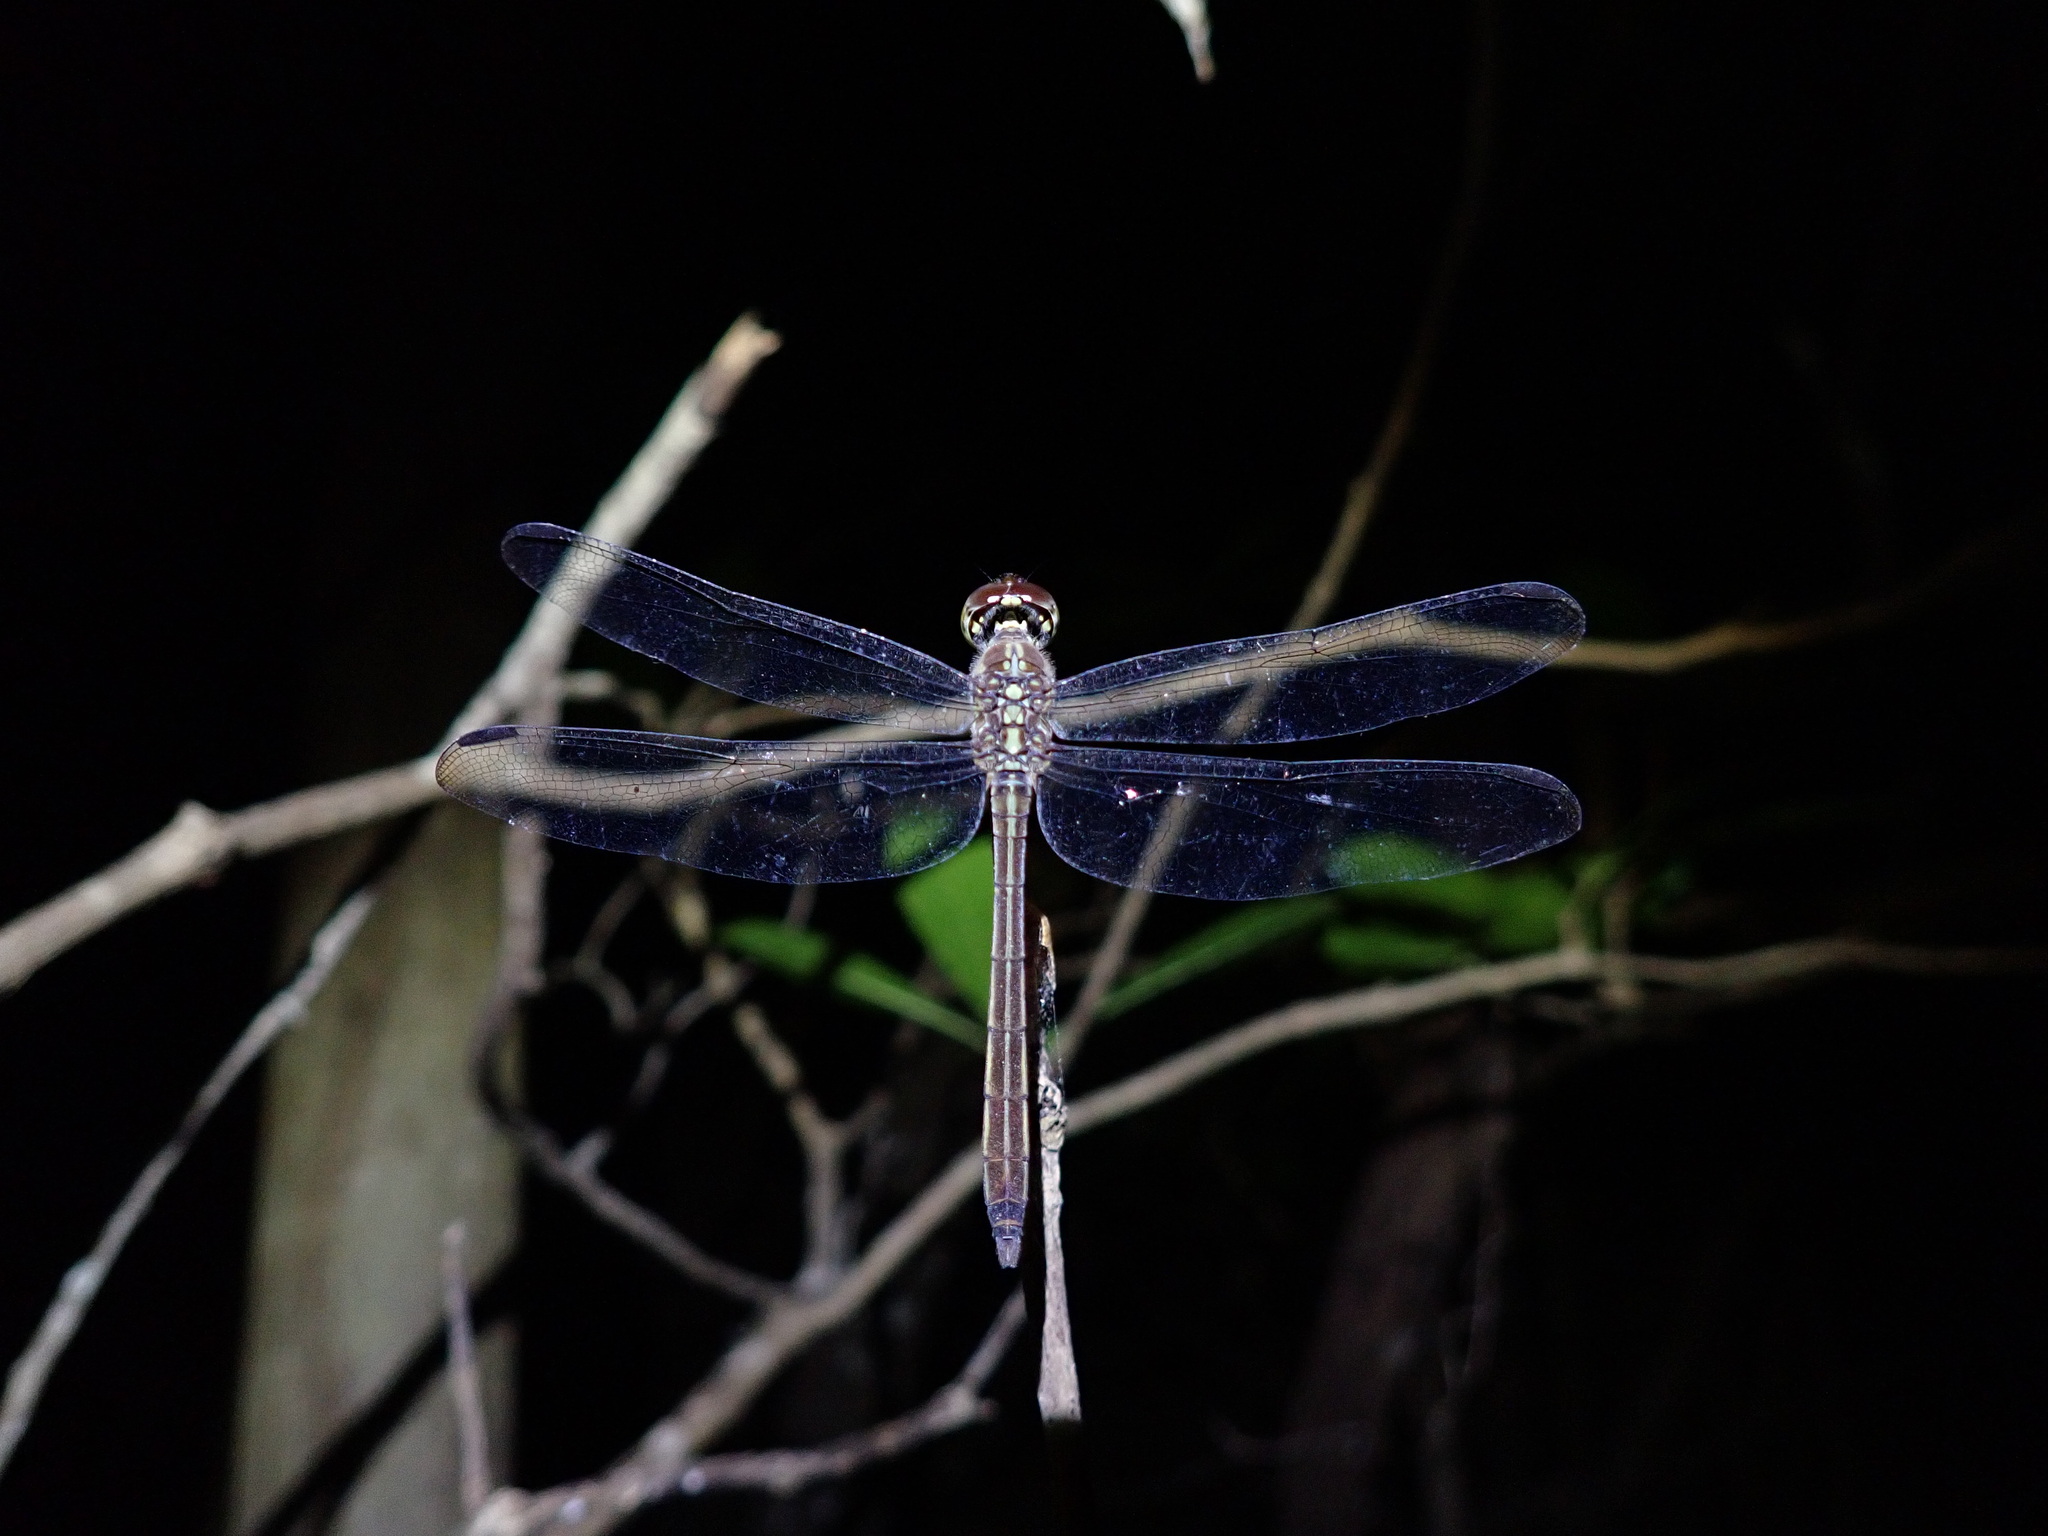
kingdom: Animalia
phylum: Arthropoda
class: Insecta
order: Odonata
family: Libellulidae
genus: Lathrecista
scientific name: Lathrecista asiatica
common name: Scarlet grenadier
